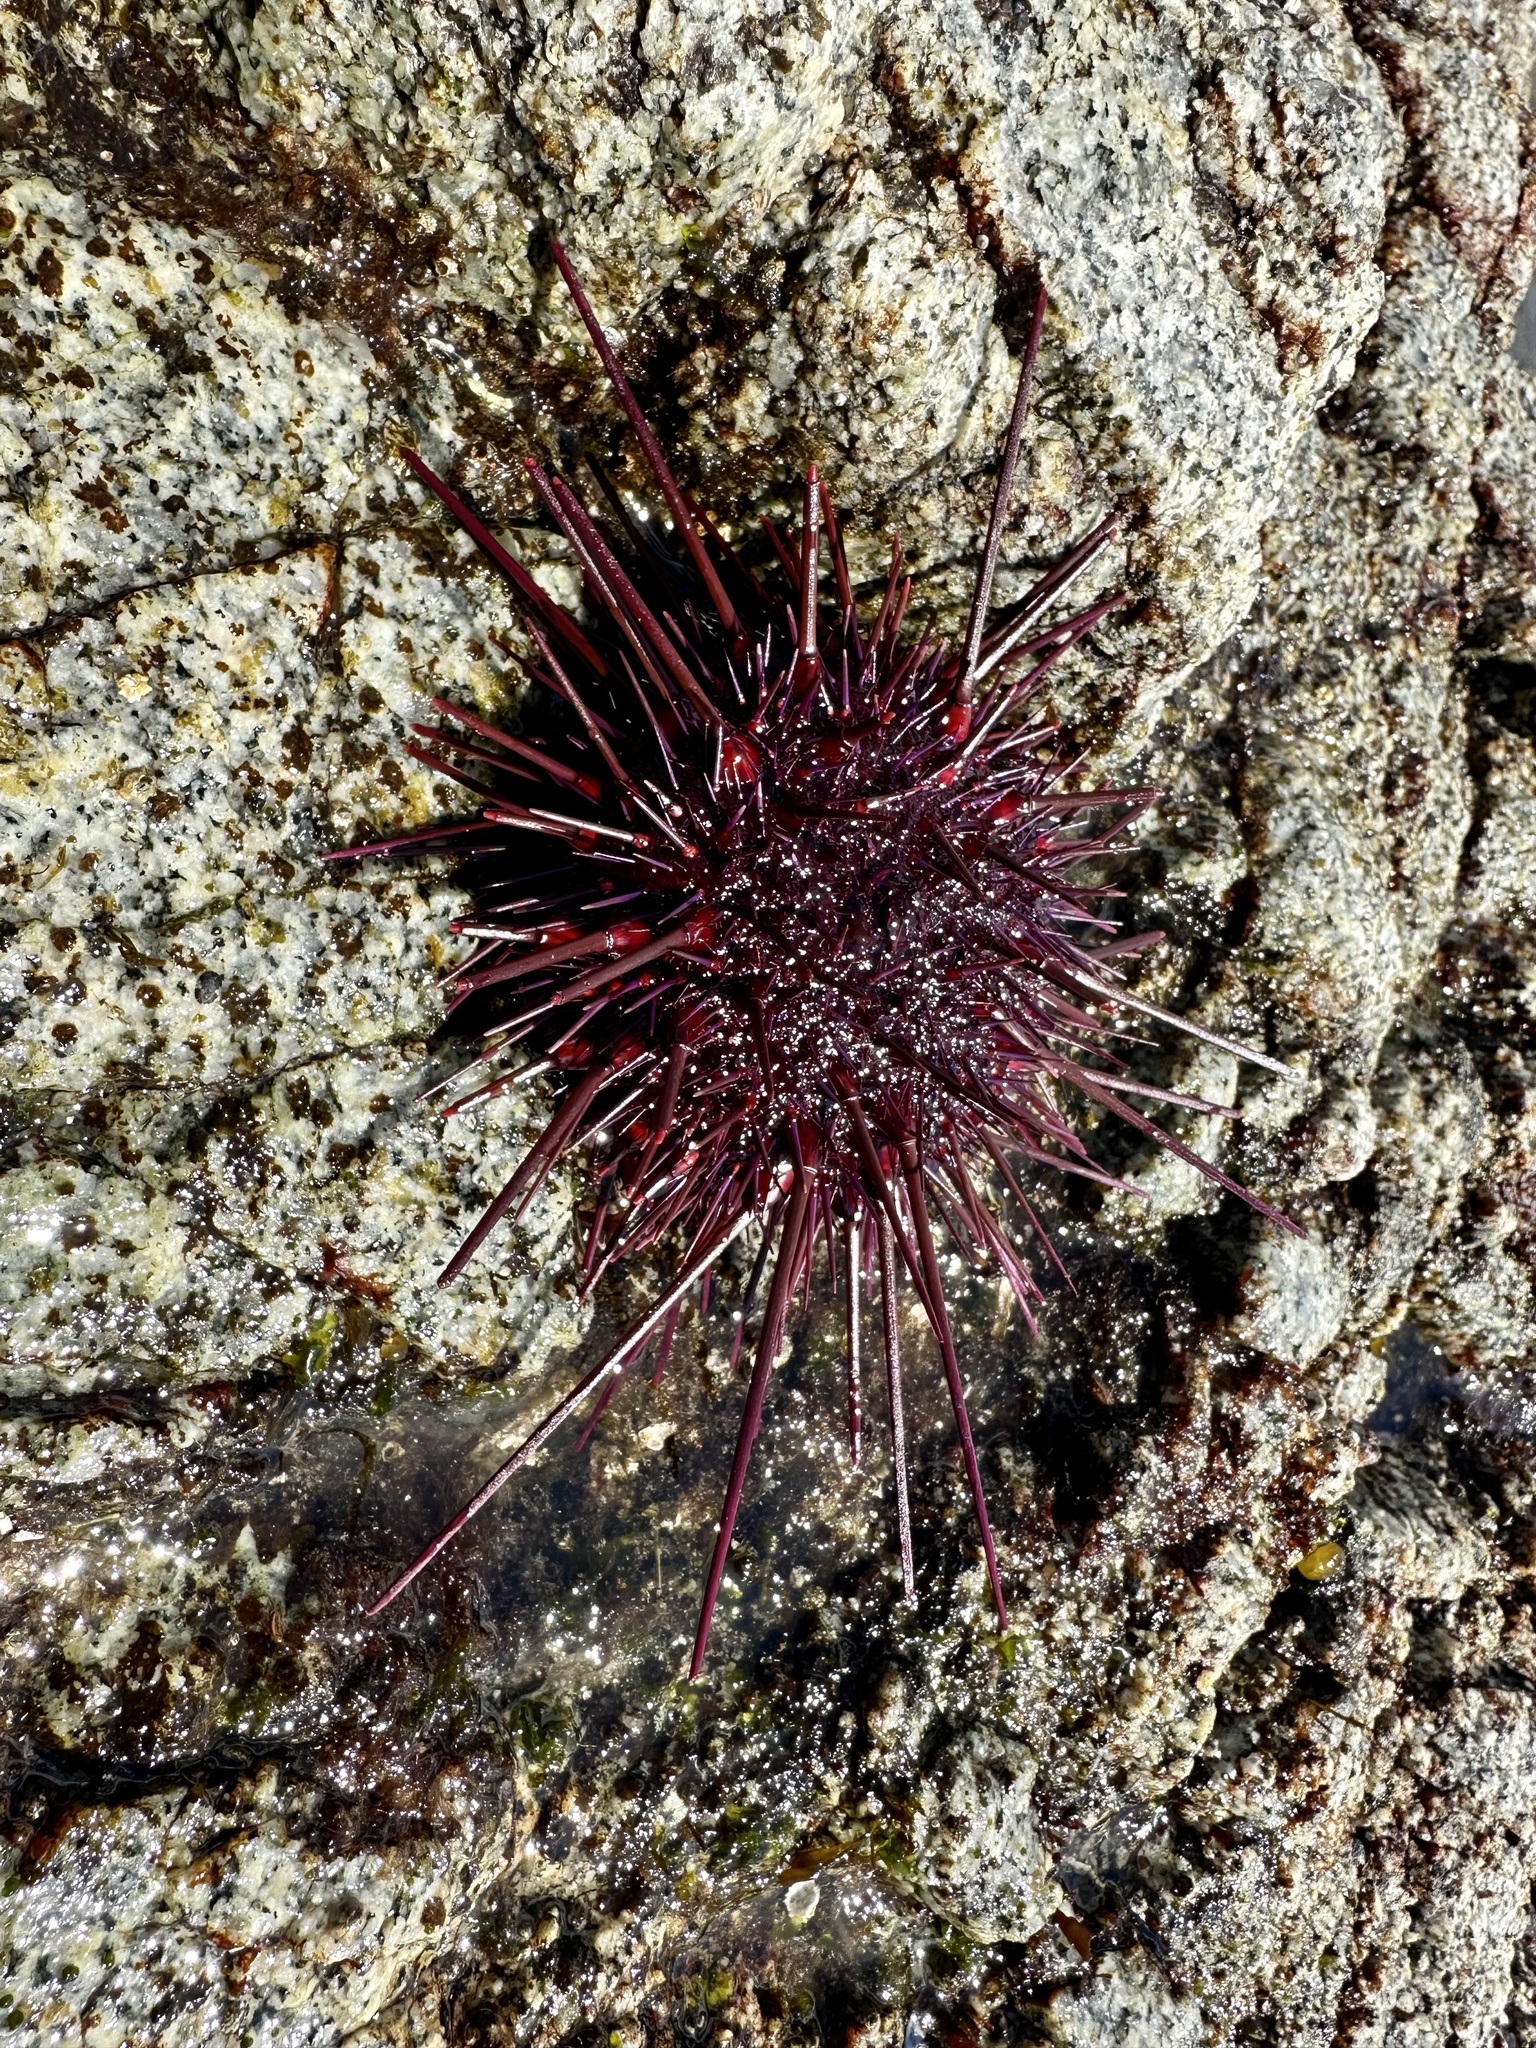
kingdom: Animalia
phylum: Echinodermata
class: Echinoidea
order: Camarodonta
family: Strongylocentrotidae
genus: Mesocentrotus
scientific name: Mesocentrotus franciscanus
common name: Red sea urchin
